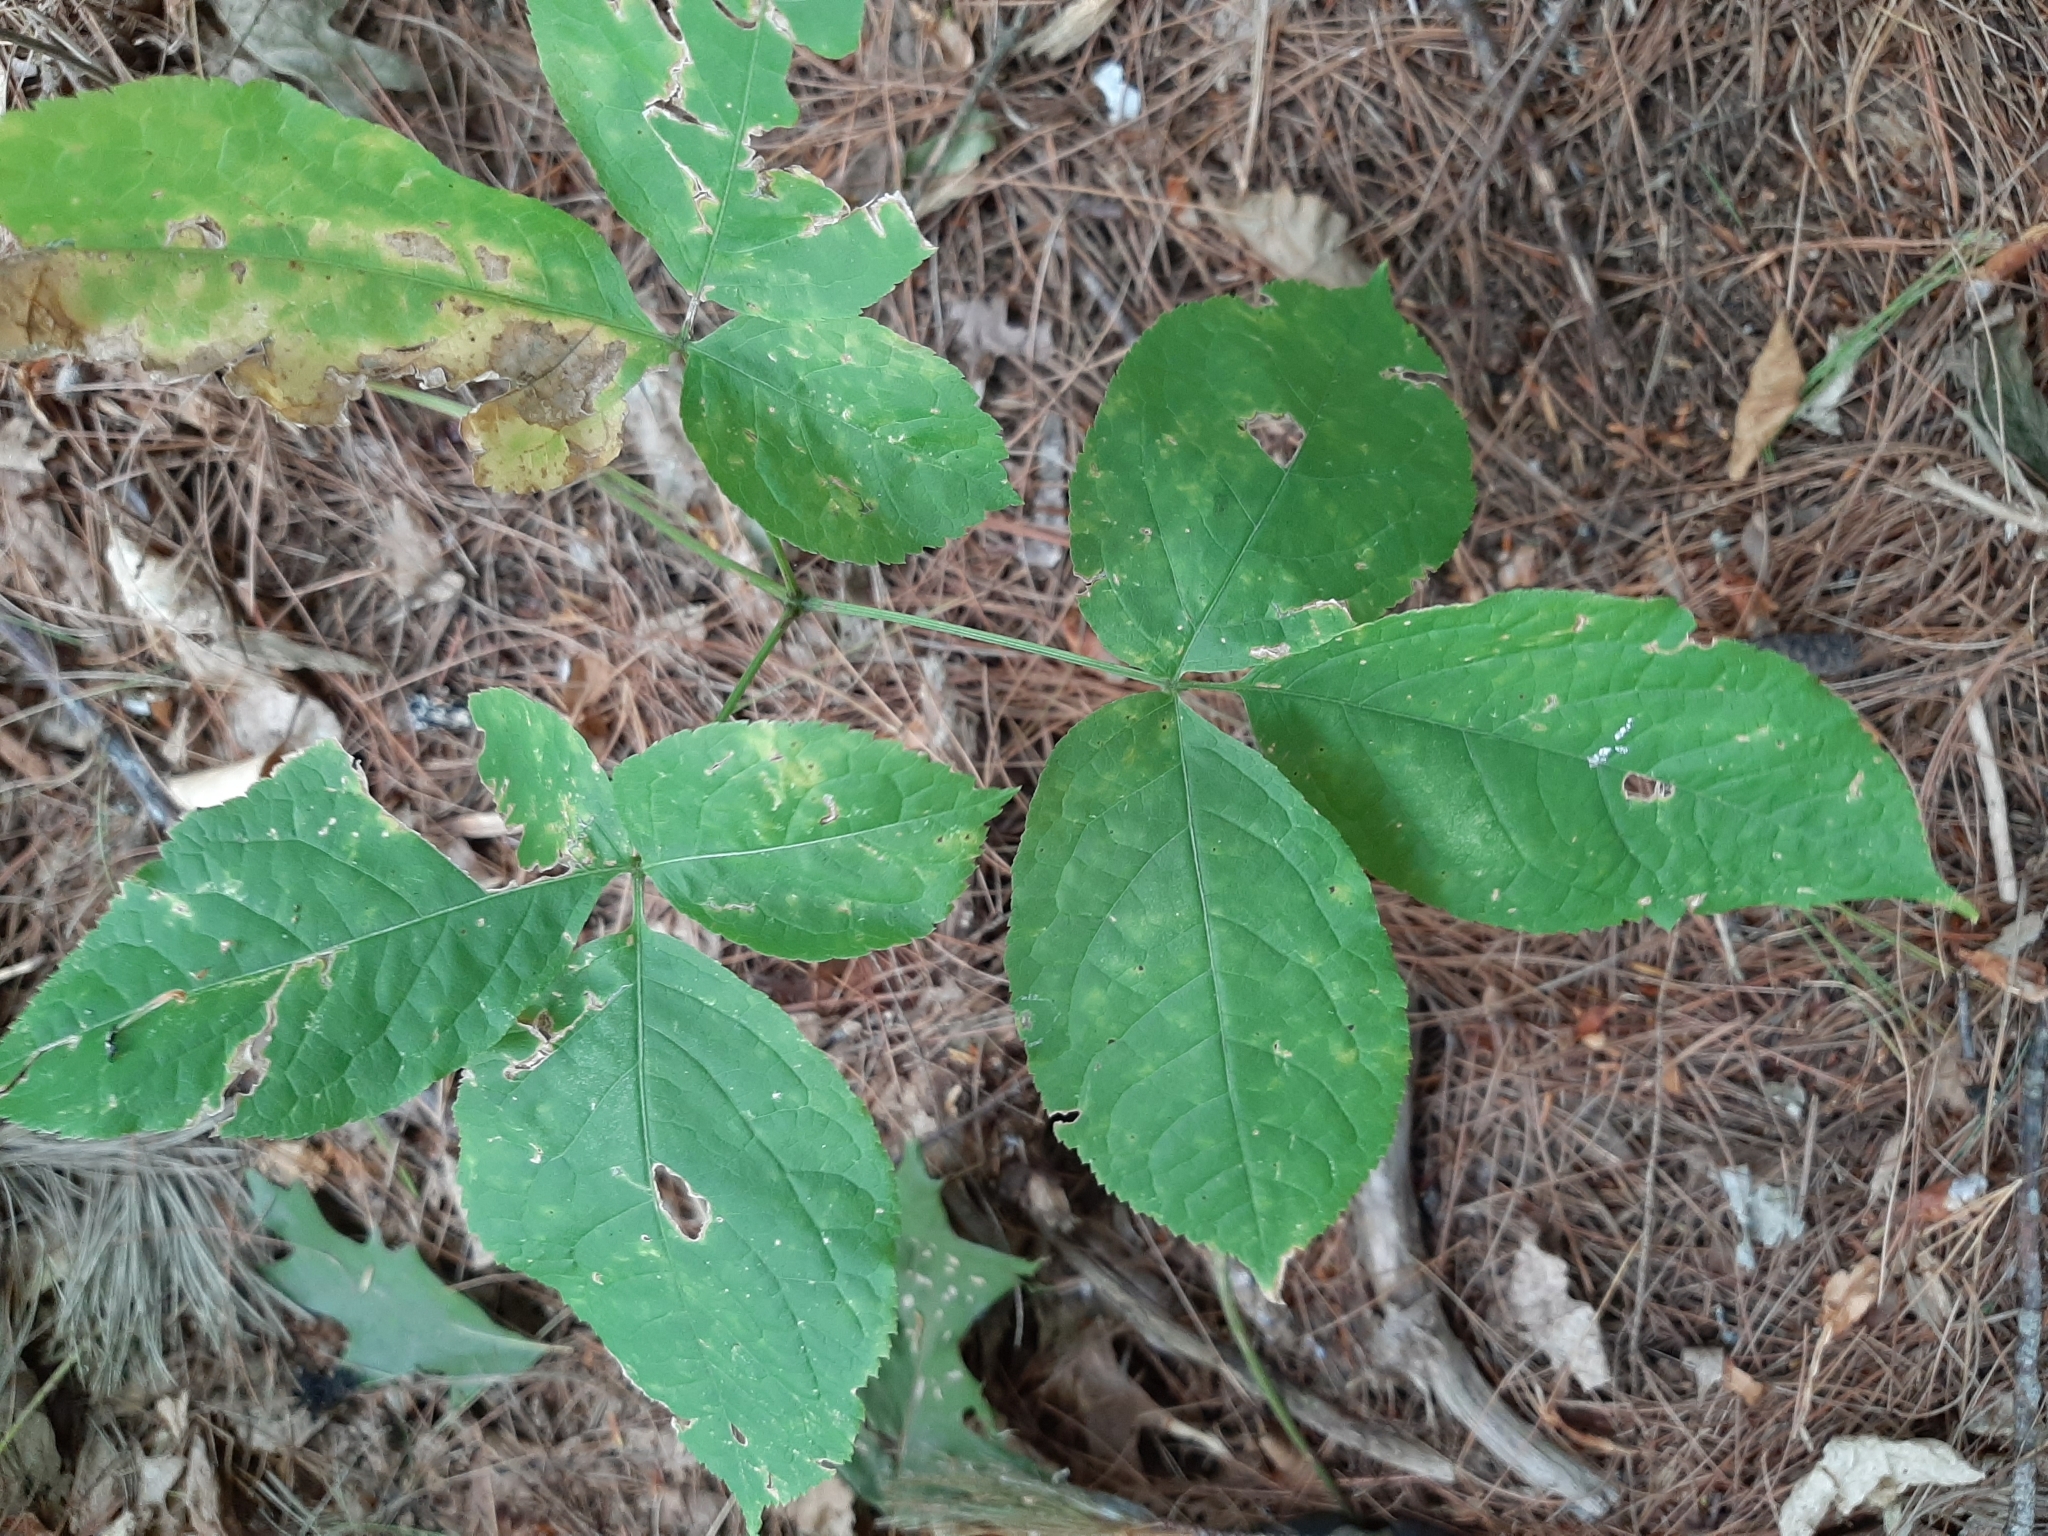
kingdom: Plantae
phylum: Tracheophyta
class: Magnoliopsida
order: Apiales
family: Araliaceae
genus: Aralia
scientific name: Aralia nudicaulis
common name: Wild sarsaparilla
